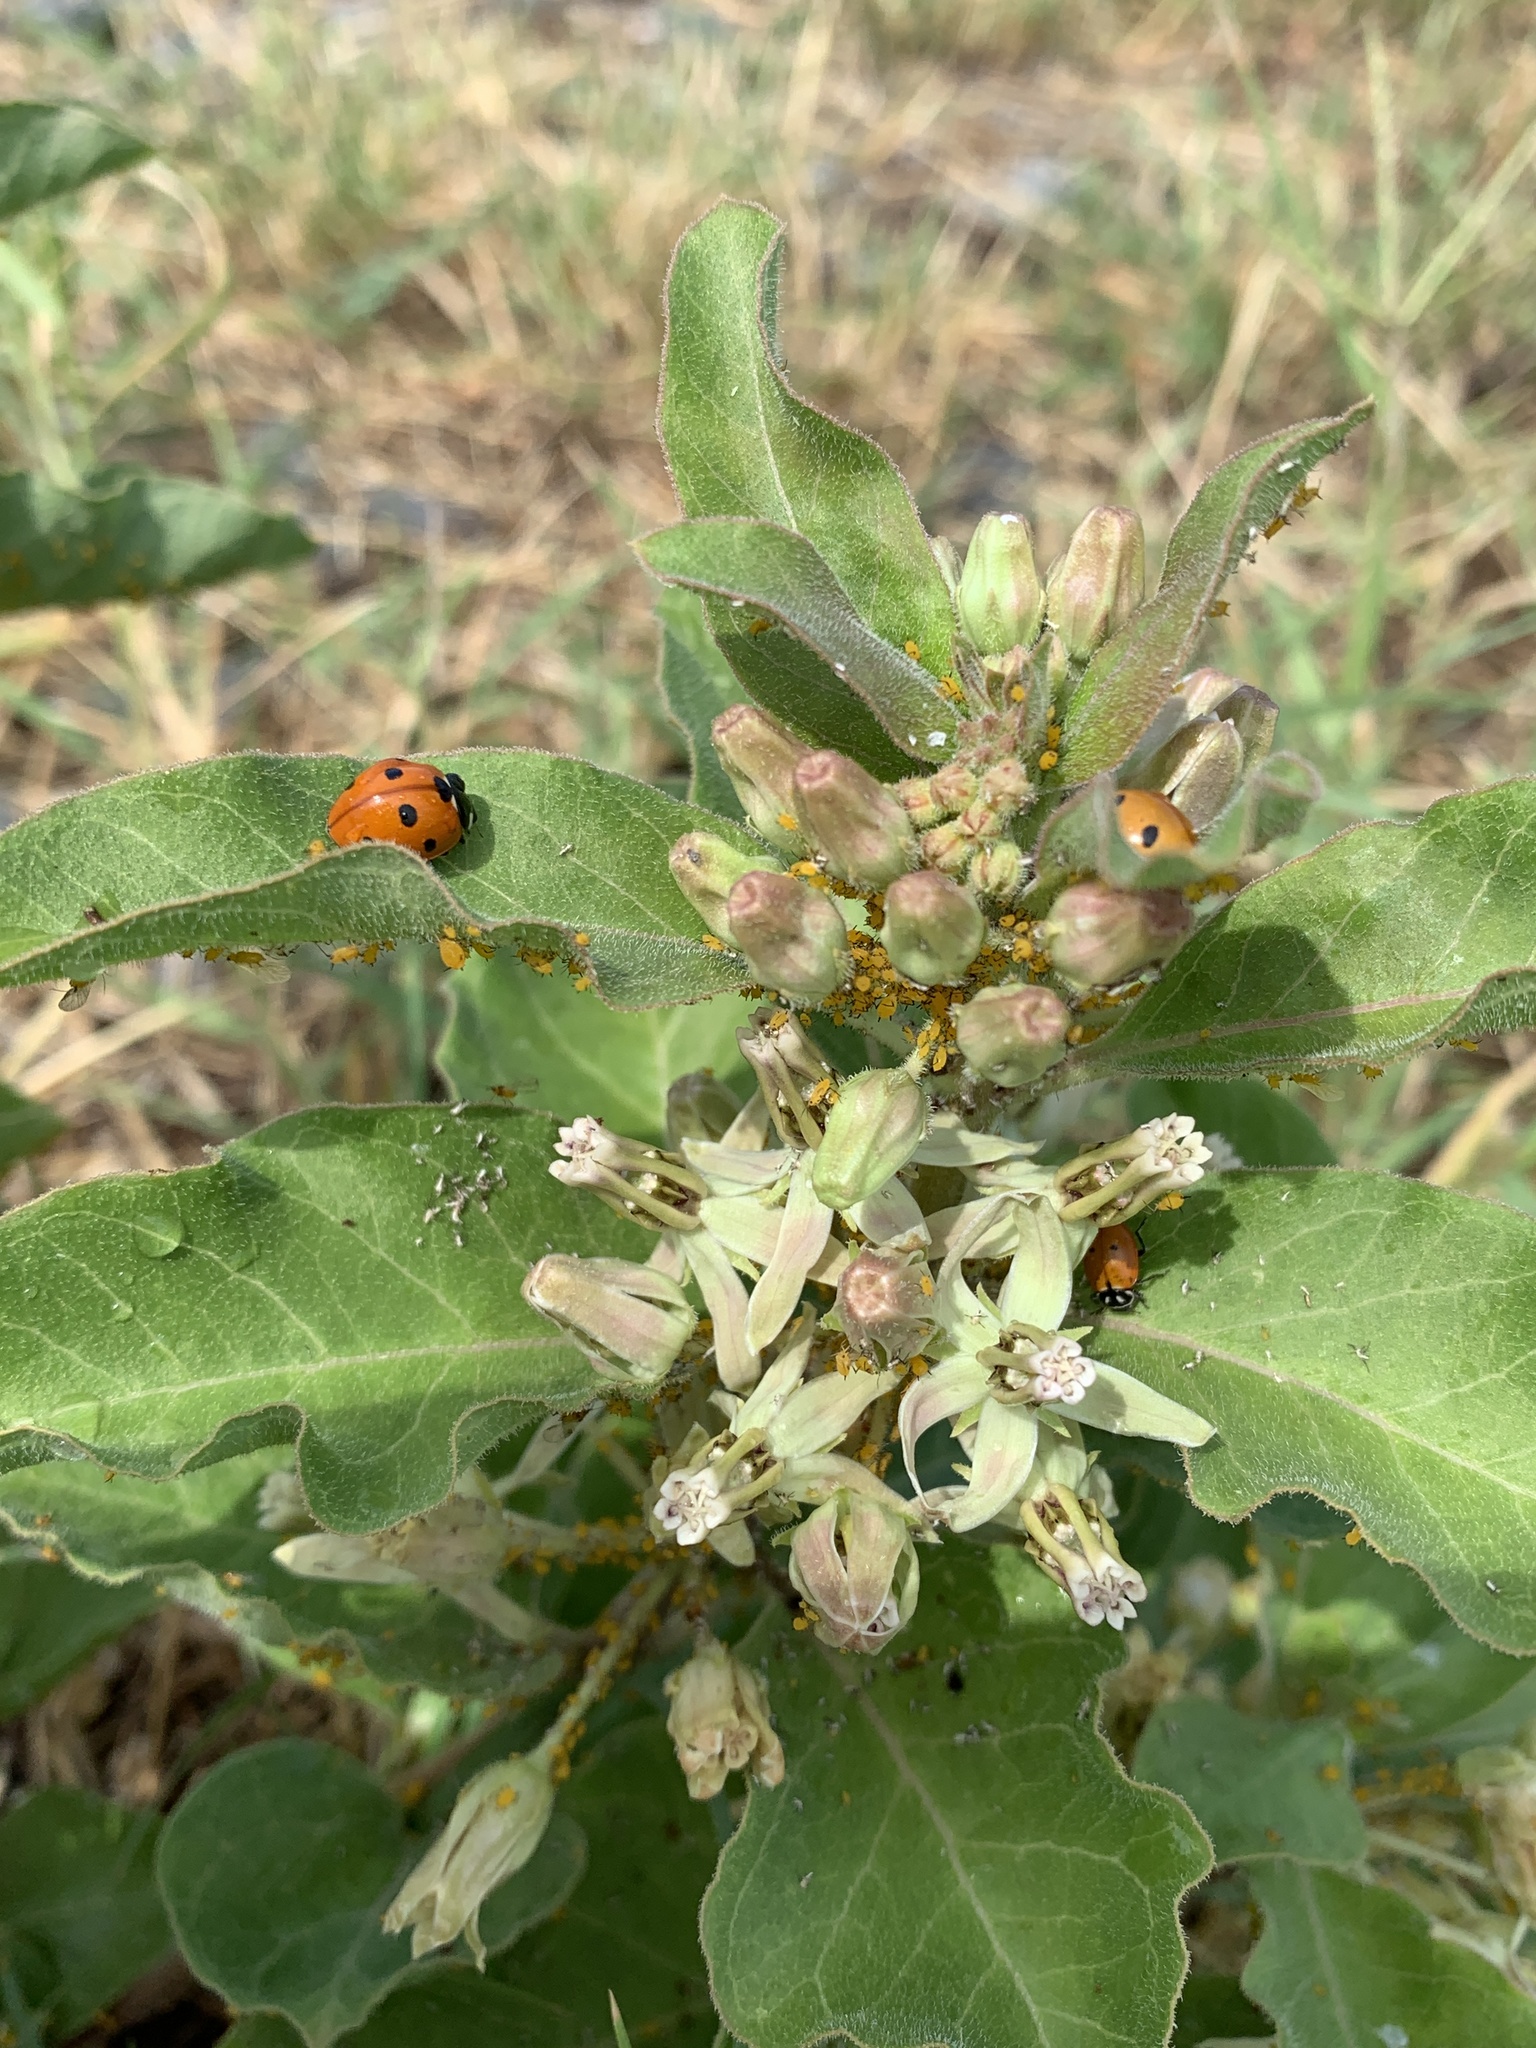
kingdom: Plantae
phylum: Tracheophyta
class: Magnoliopsida
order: Gentianales
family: Apocynaceae
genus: Asclepias
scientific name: Asclepias oenotheroides
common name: Zizotes milkweed
